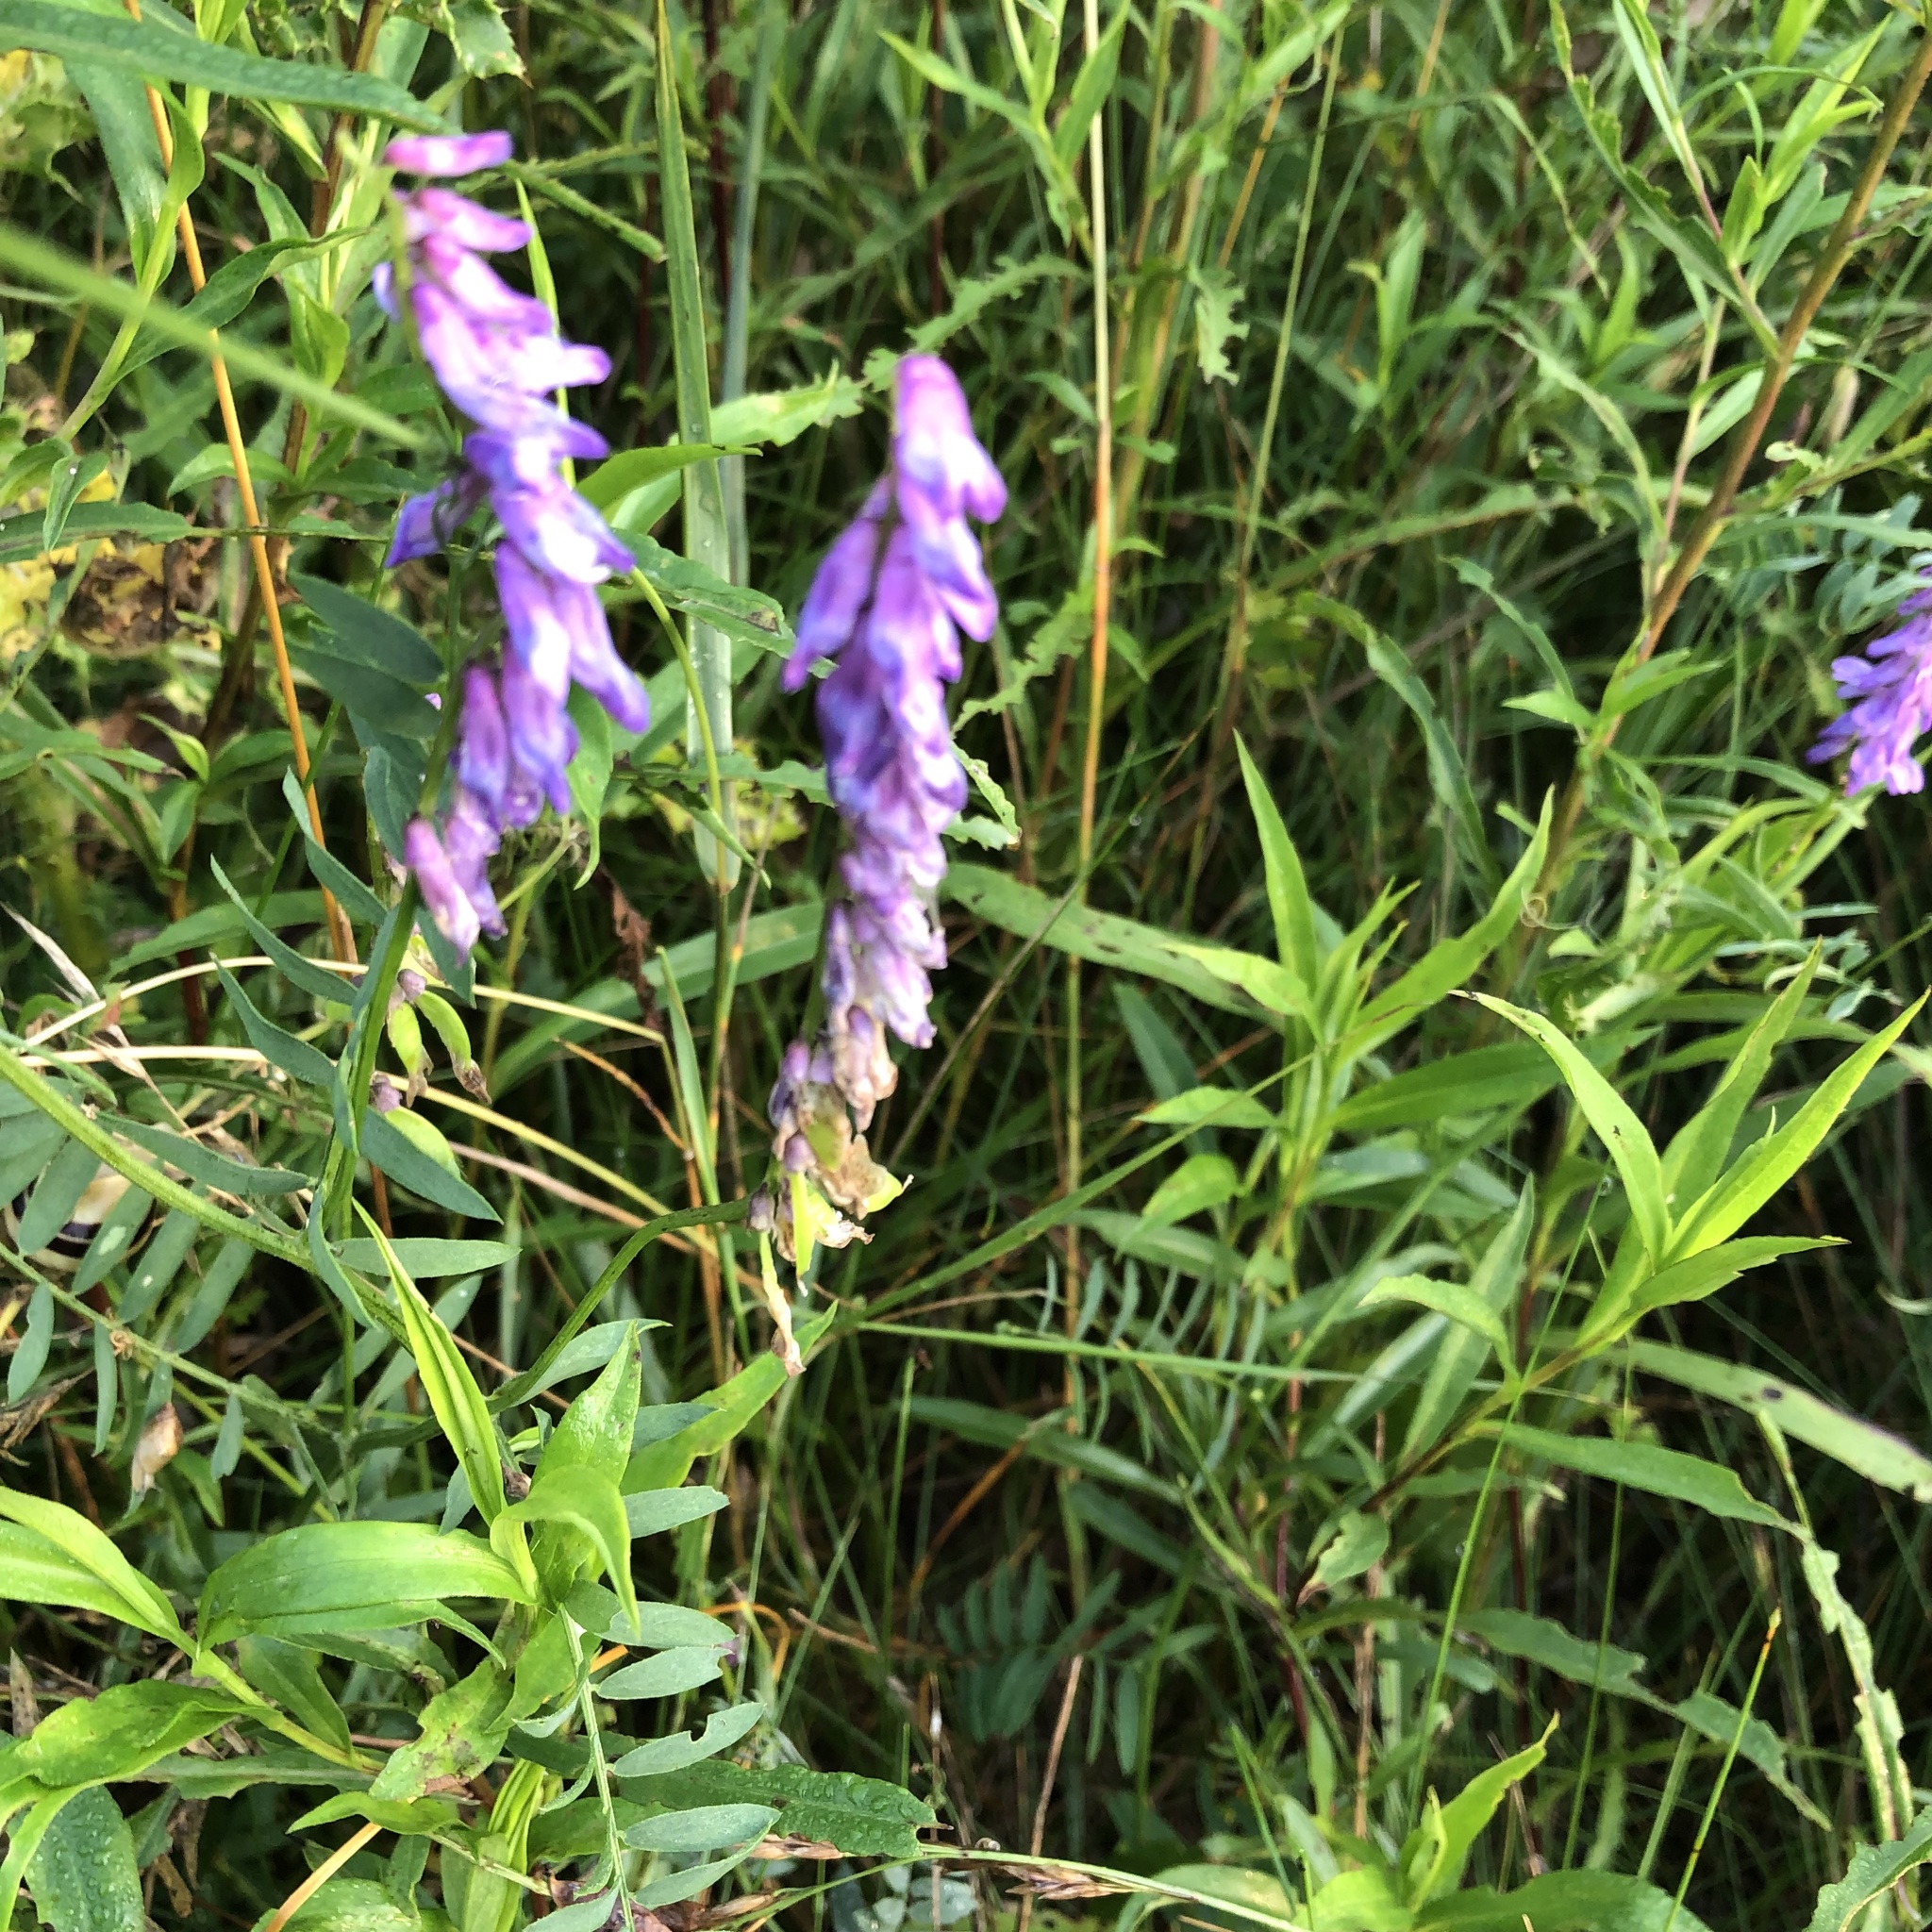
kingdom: Plantae
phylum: Tracheophyta
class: Magnoliopsida
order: Fabales
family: Fabaceae
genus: Vicia
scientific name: Vicia cracca
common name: Bird vetch
